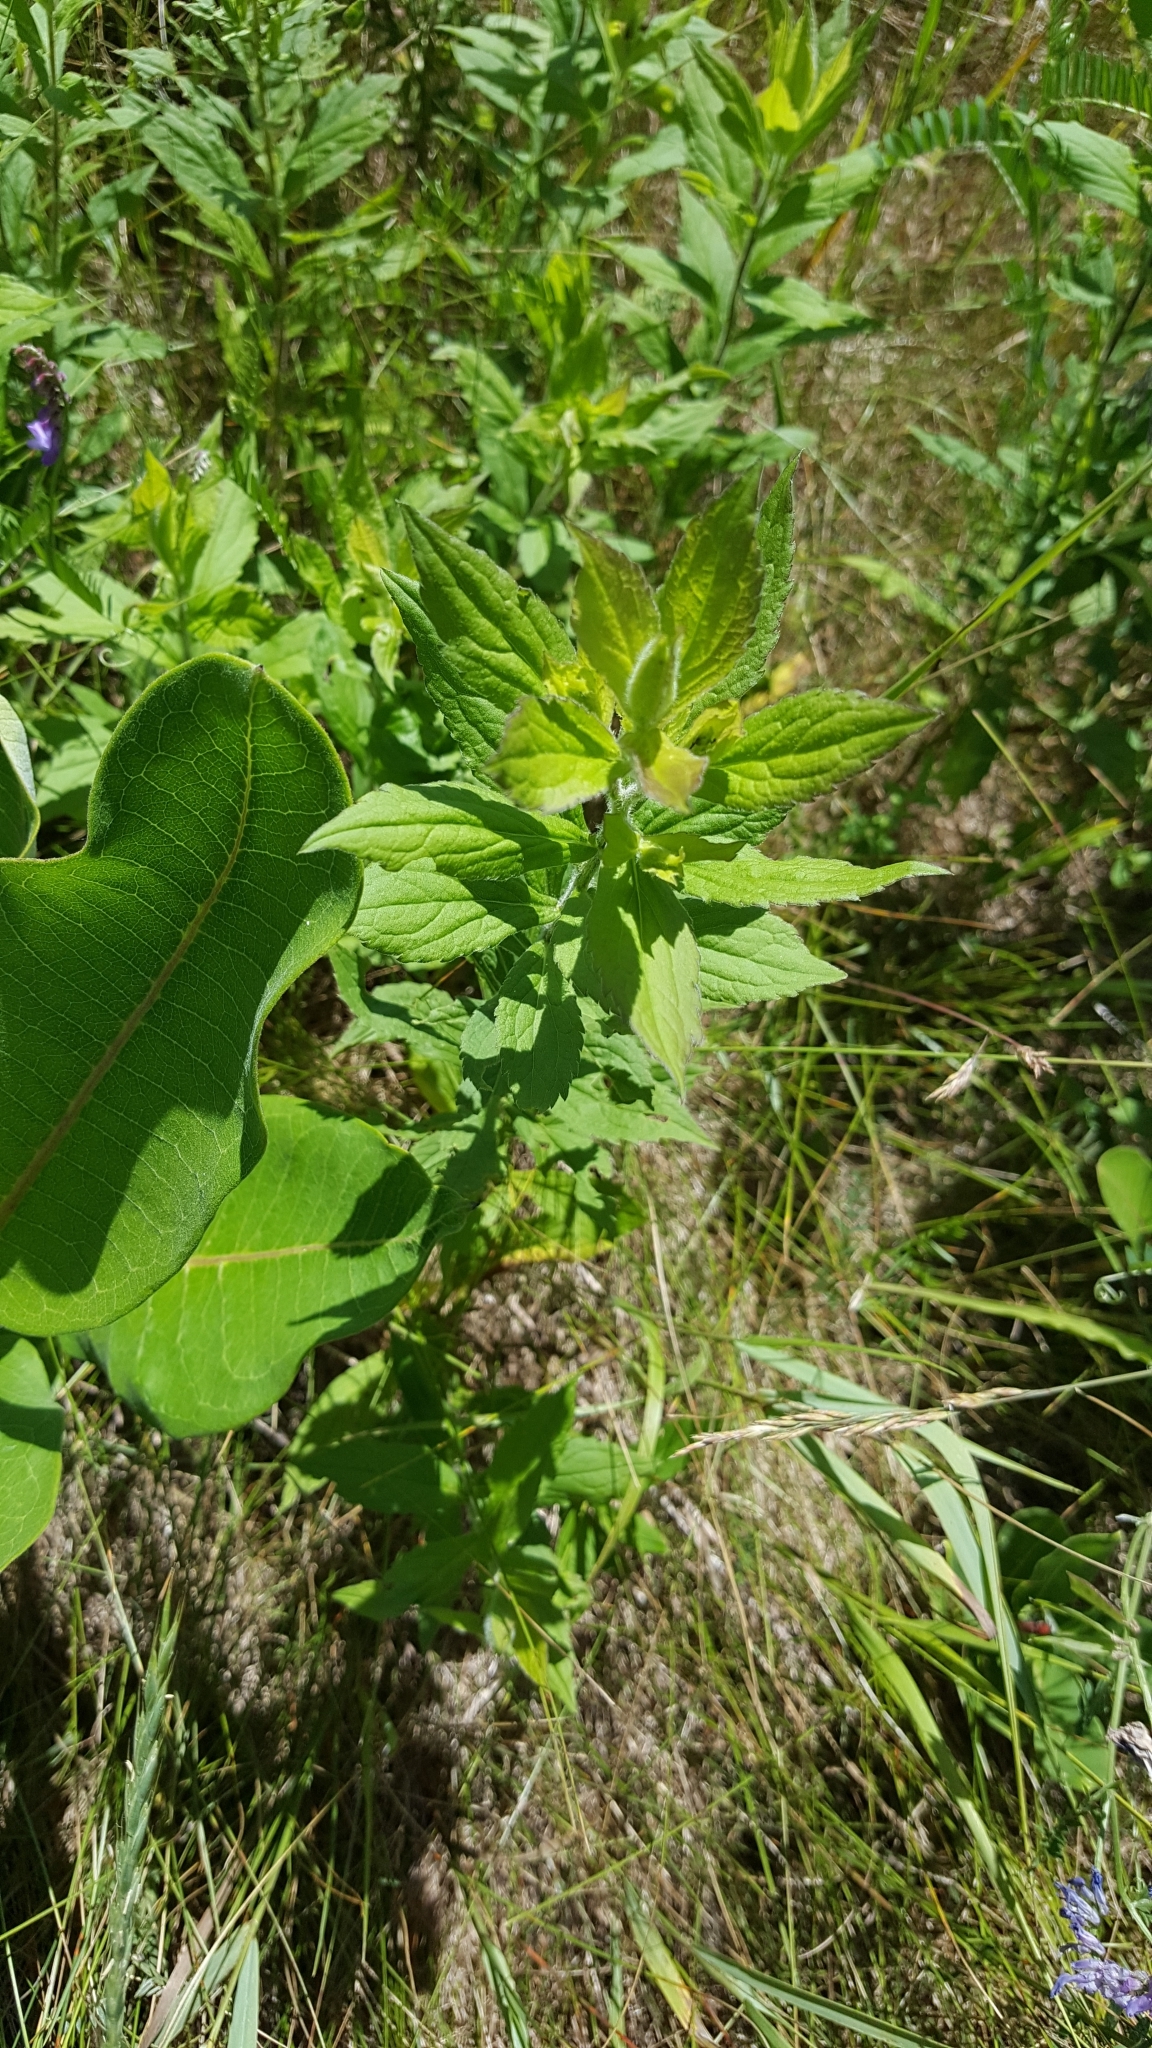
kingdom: Plantae
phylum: Tracheophyta
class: Magnoliopsida
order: Asterales
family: Asteraceae
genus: Solidago
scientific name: Solidago rugosa
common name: Rough-stemmed goldenrod
